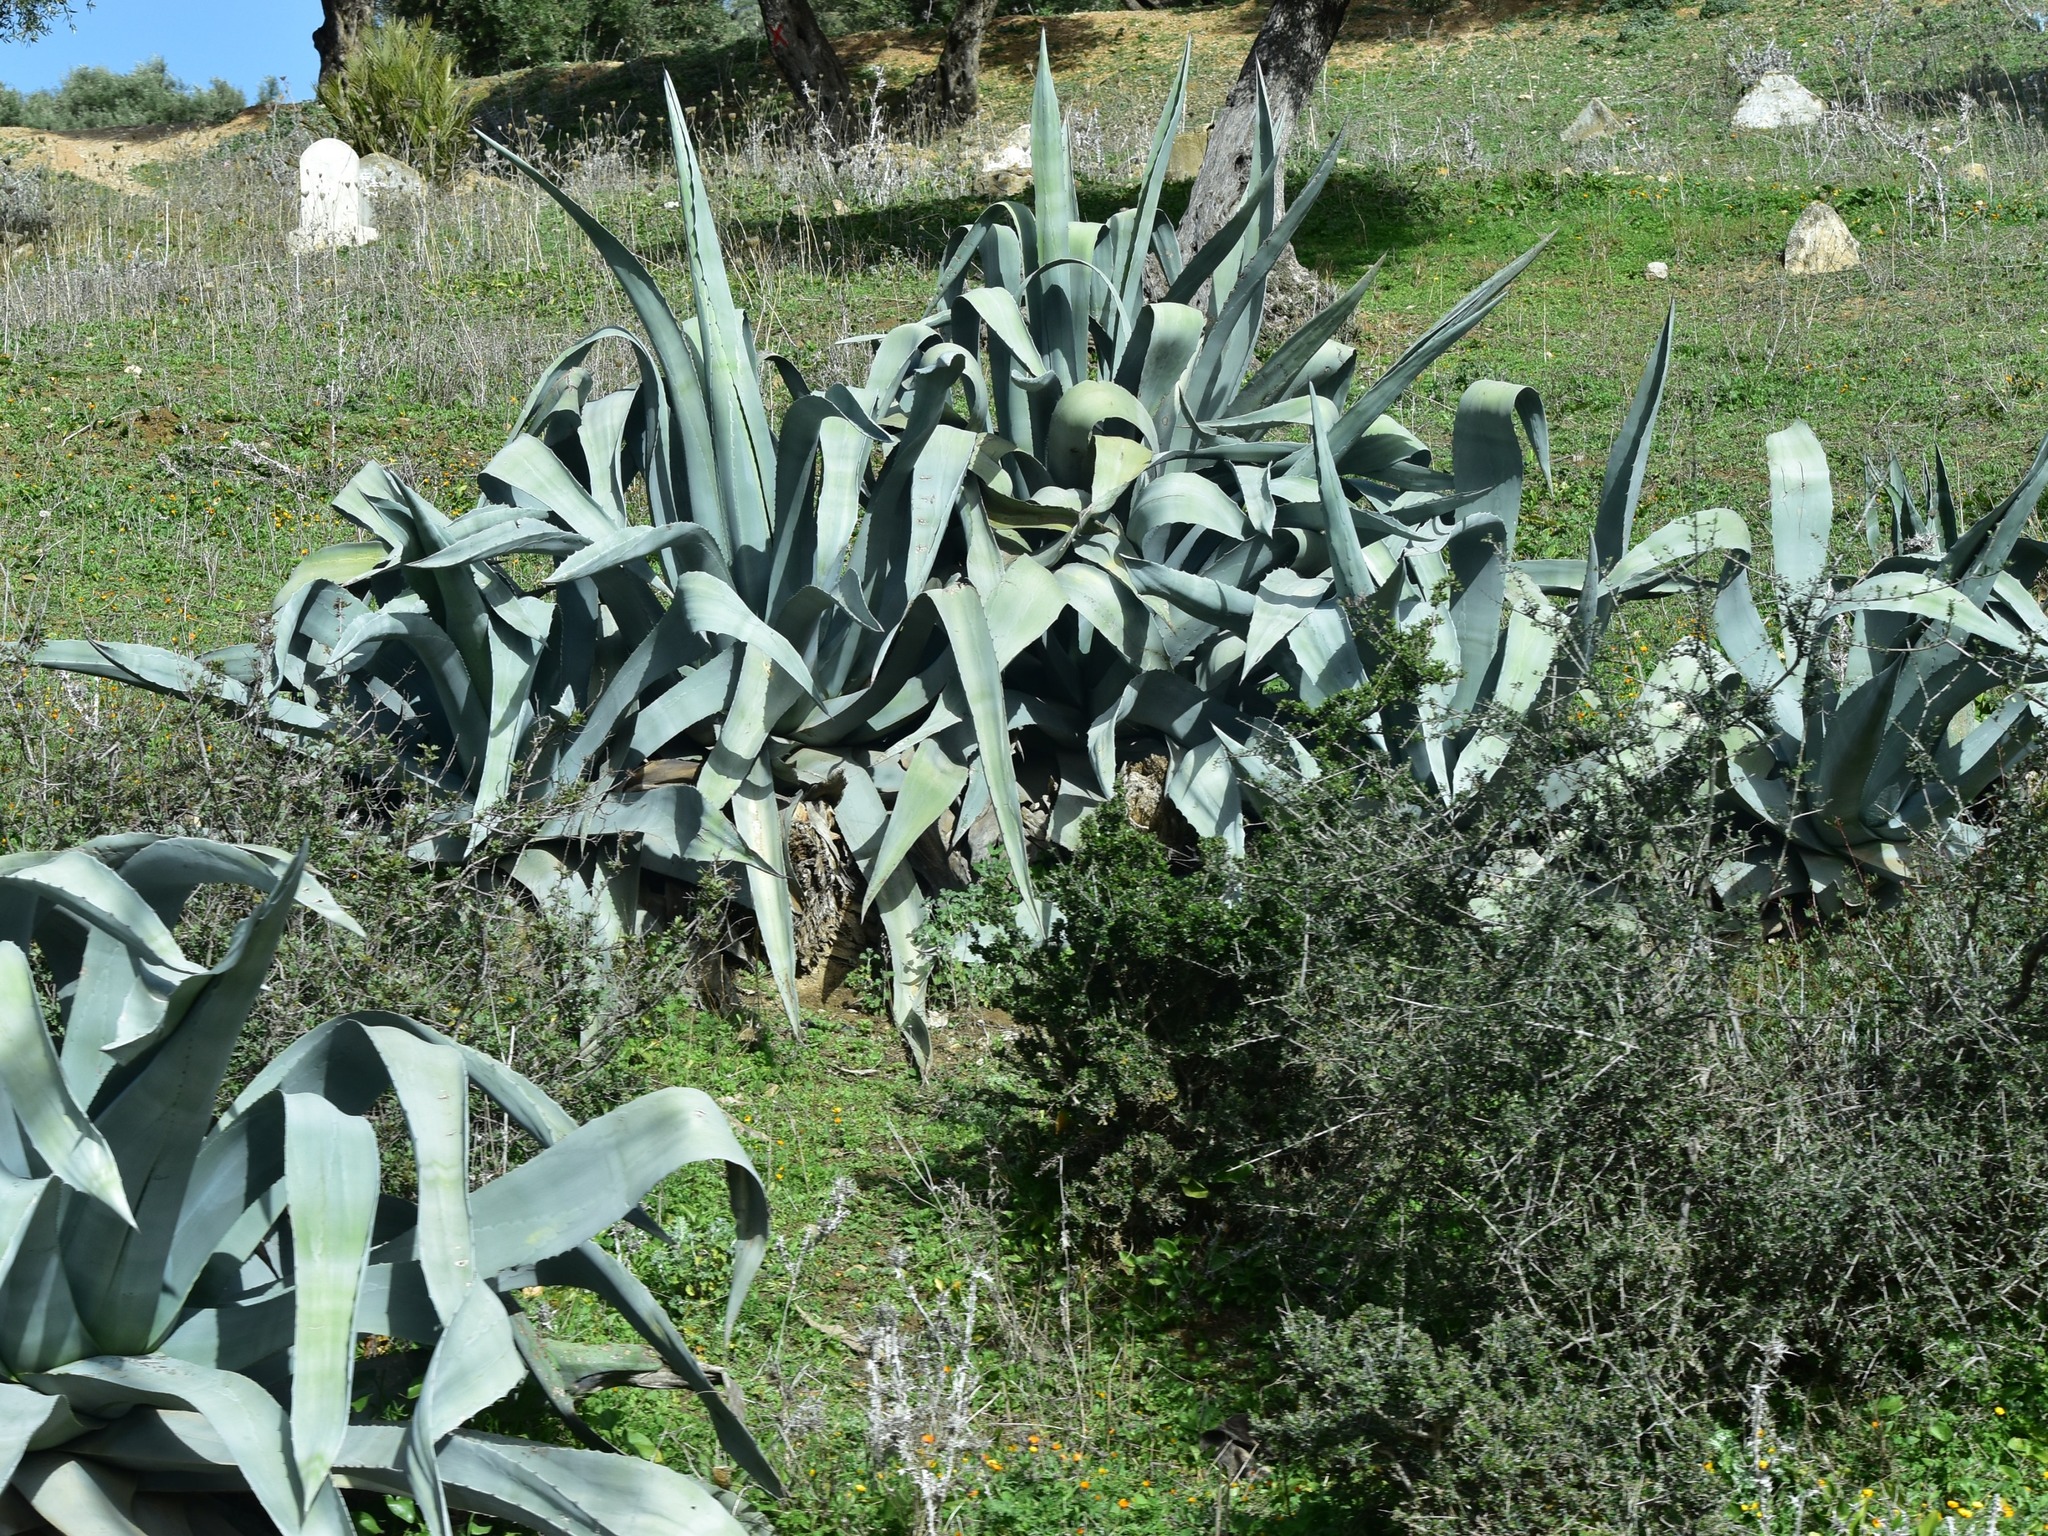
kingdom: Plantae
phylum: Tracheophyta
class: Liliopsida
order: Asparagales
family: Asparagaceae
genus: Agave
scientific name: Agave americana
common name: Centuryplant
